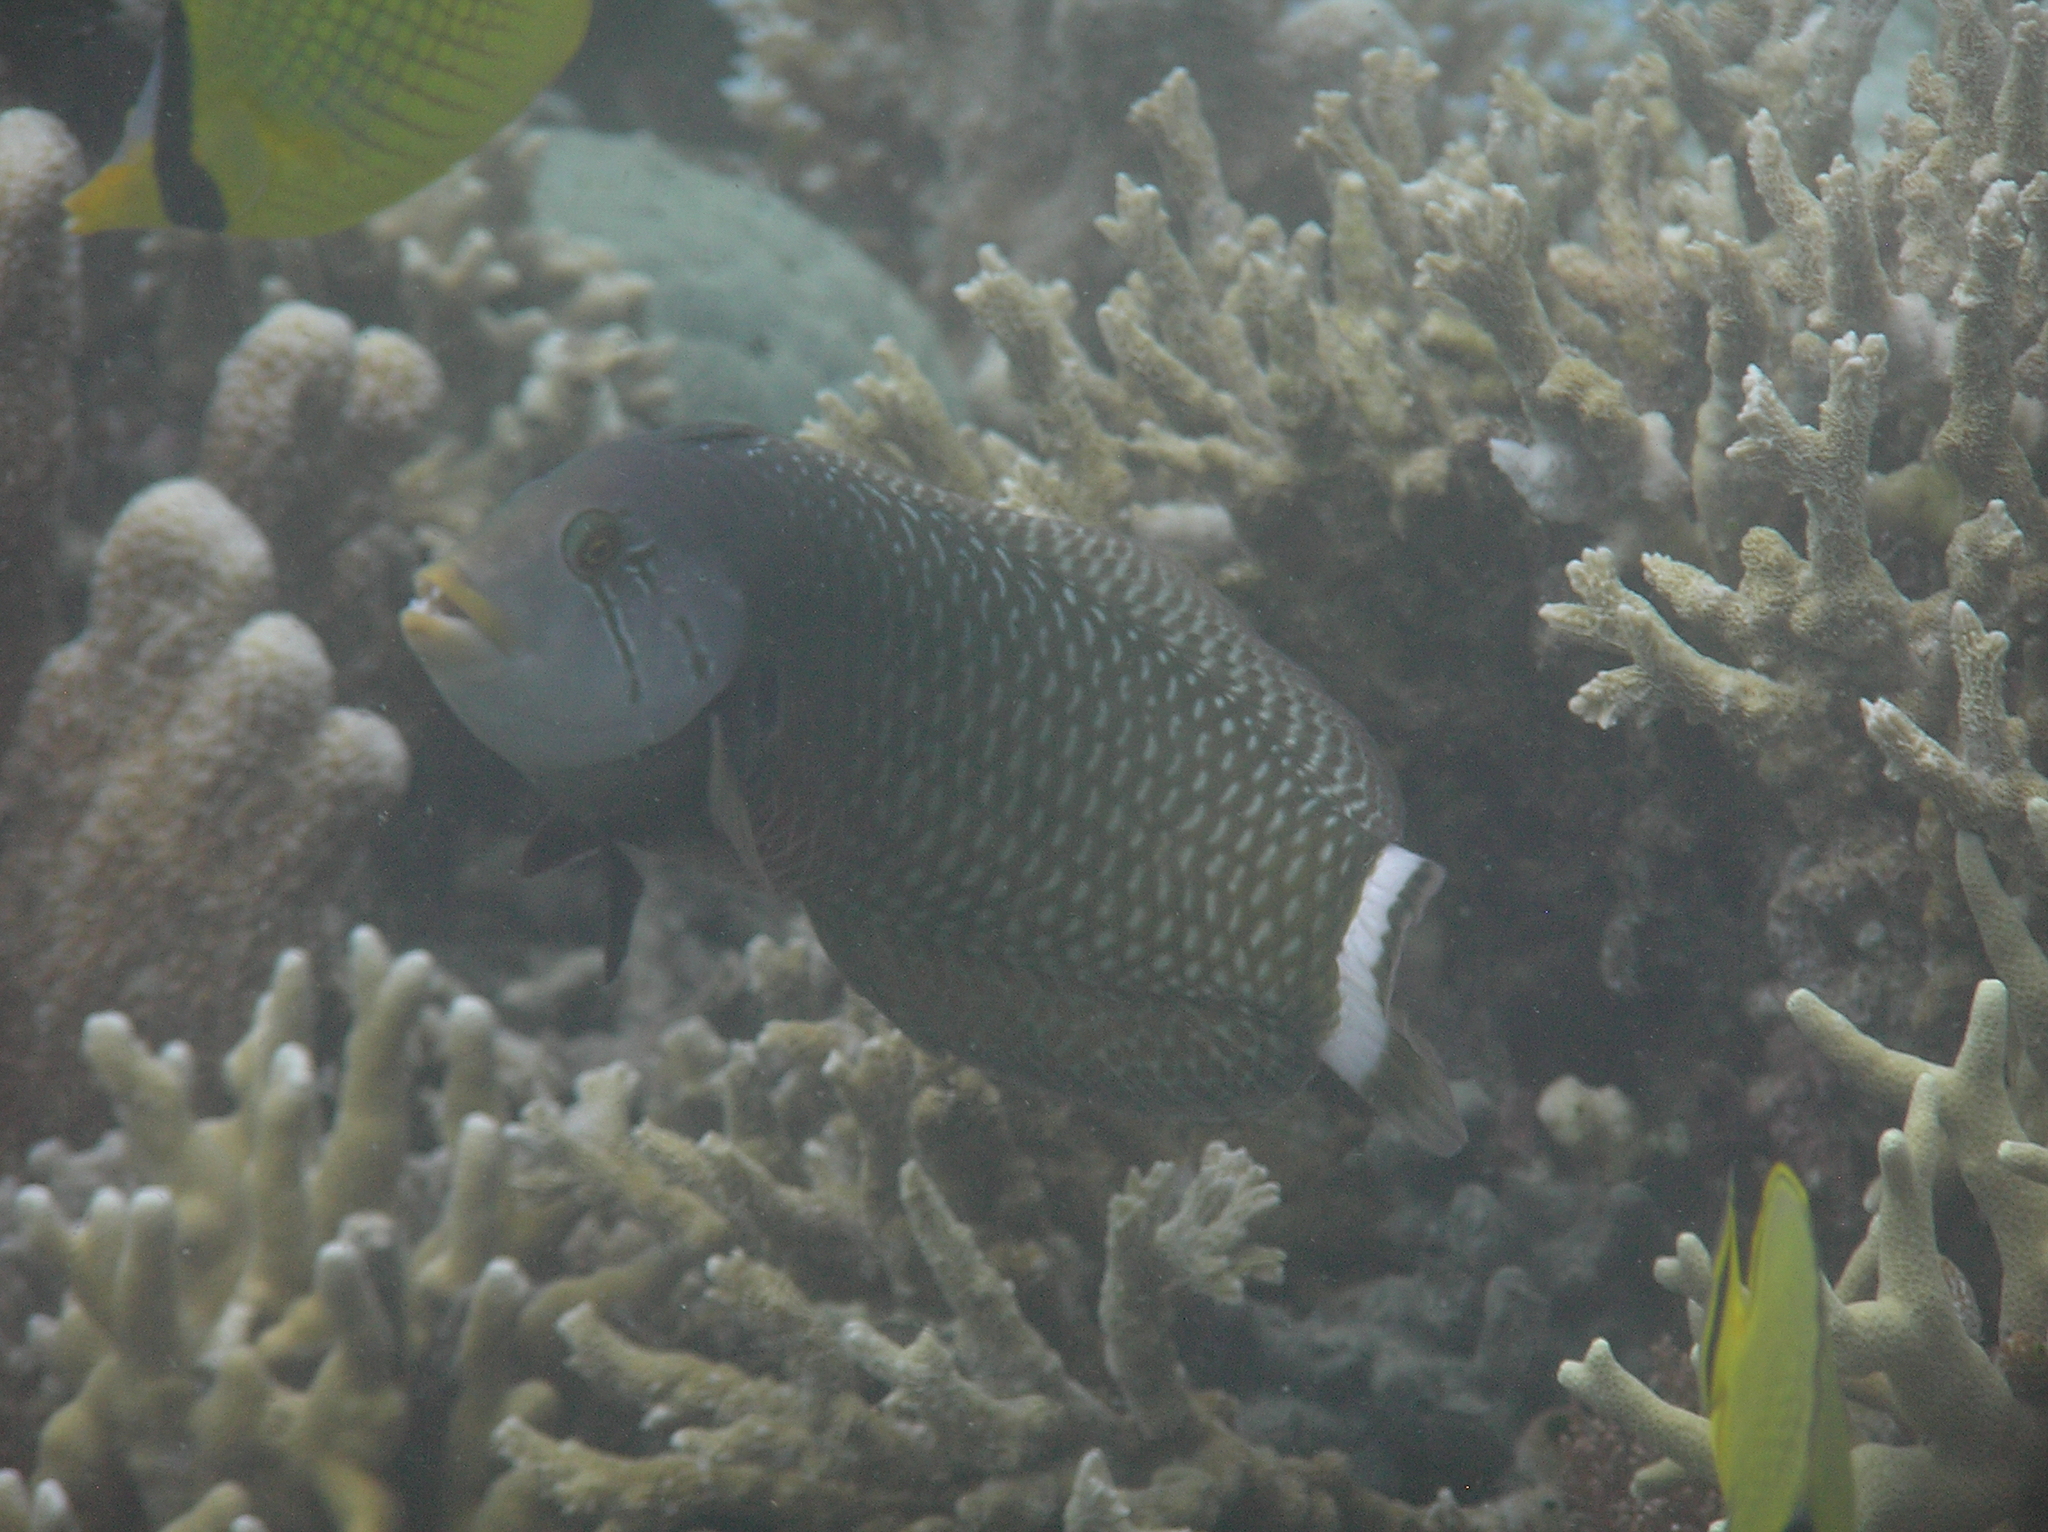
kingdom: Animalia
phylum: Chordata
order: Perciformes
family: Labridae
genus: Novaculichthys
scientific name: Novaculichthys taeniourus
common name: Rockmover wrasse
